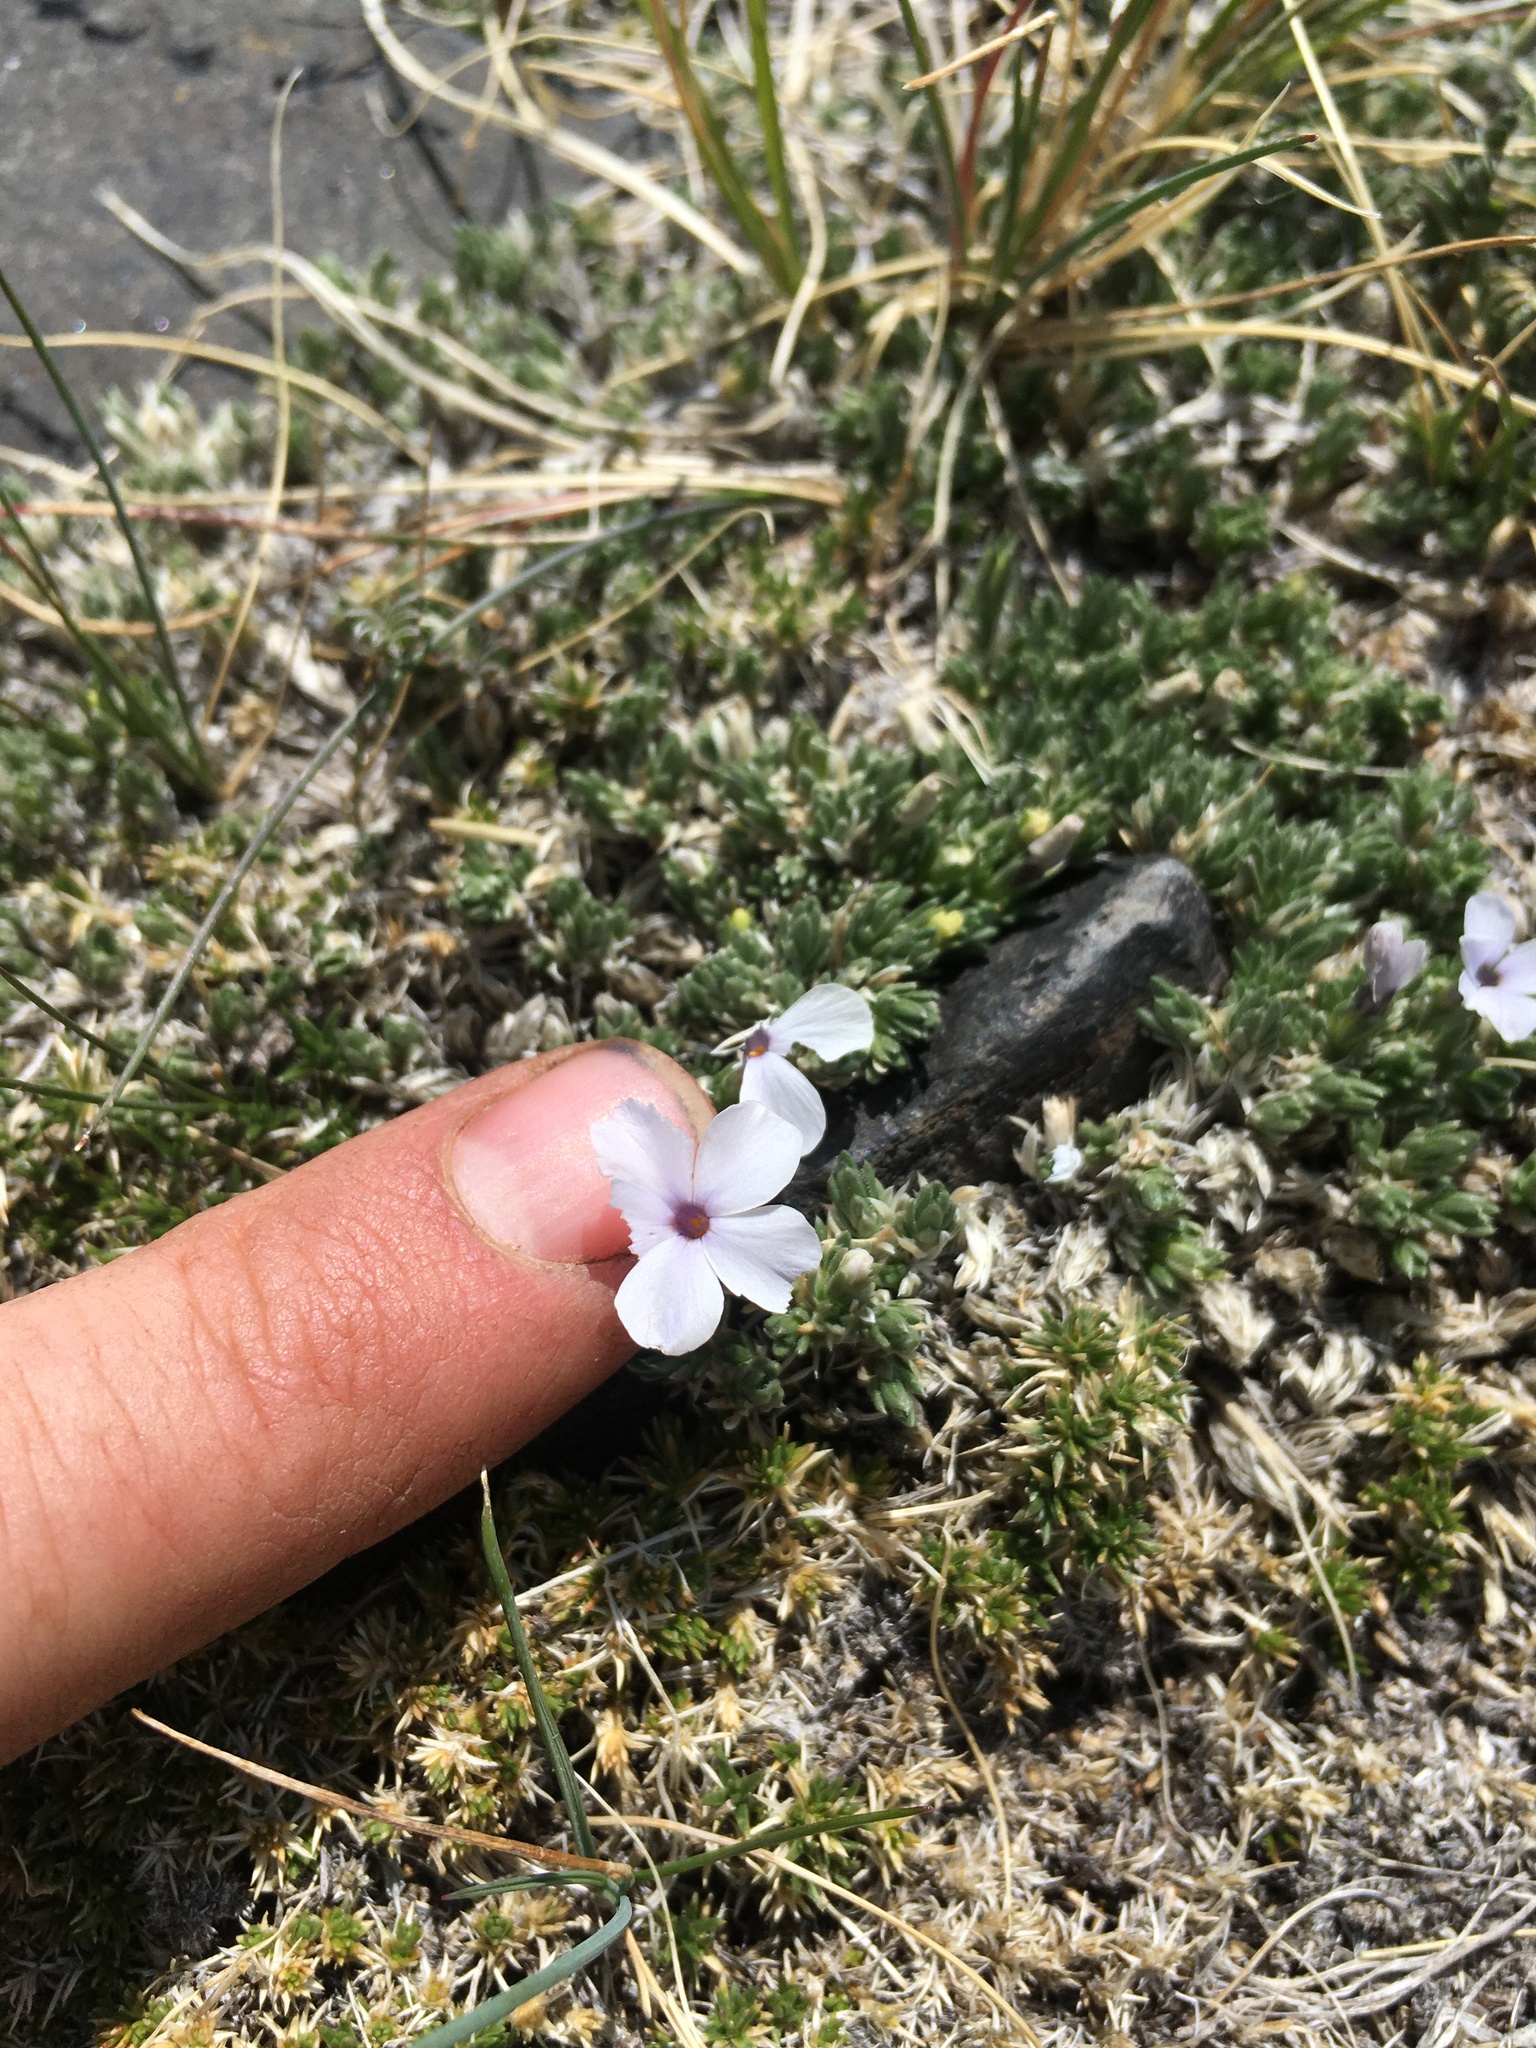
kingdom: Plantae
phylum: Tracheophyta
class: Magnoliopsida
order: Ericales
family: Polemoniaceae
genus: Phlox
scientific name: Phlox condensata
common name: Compact phlox
